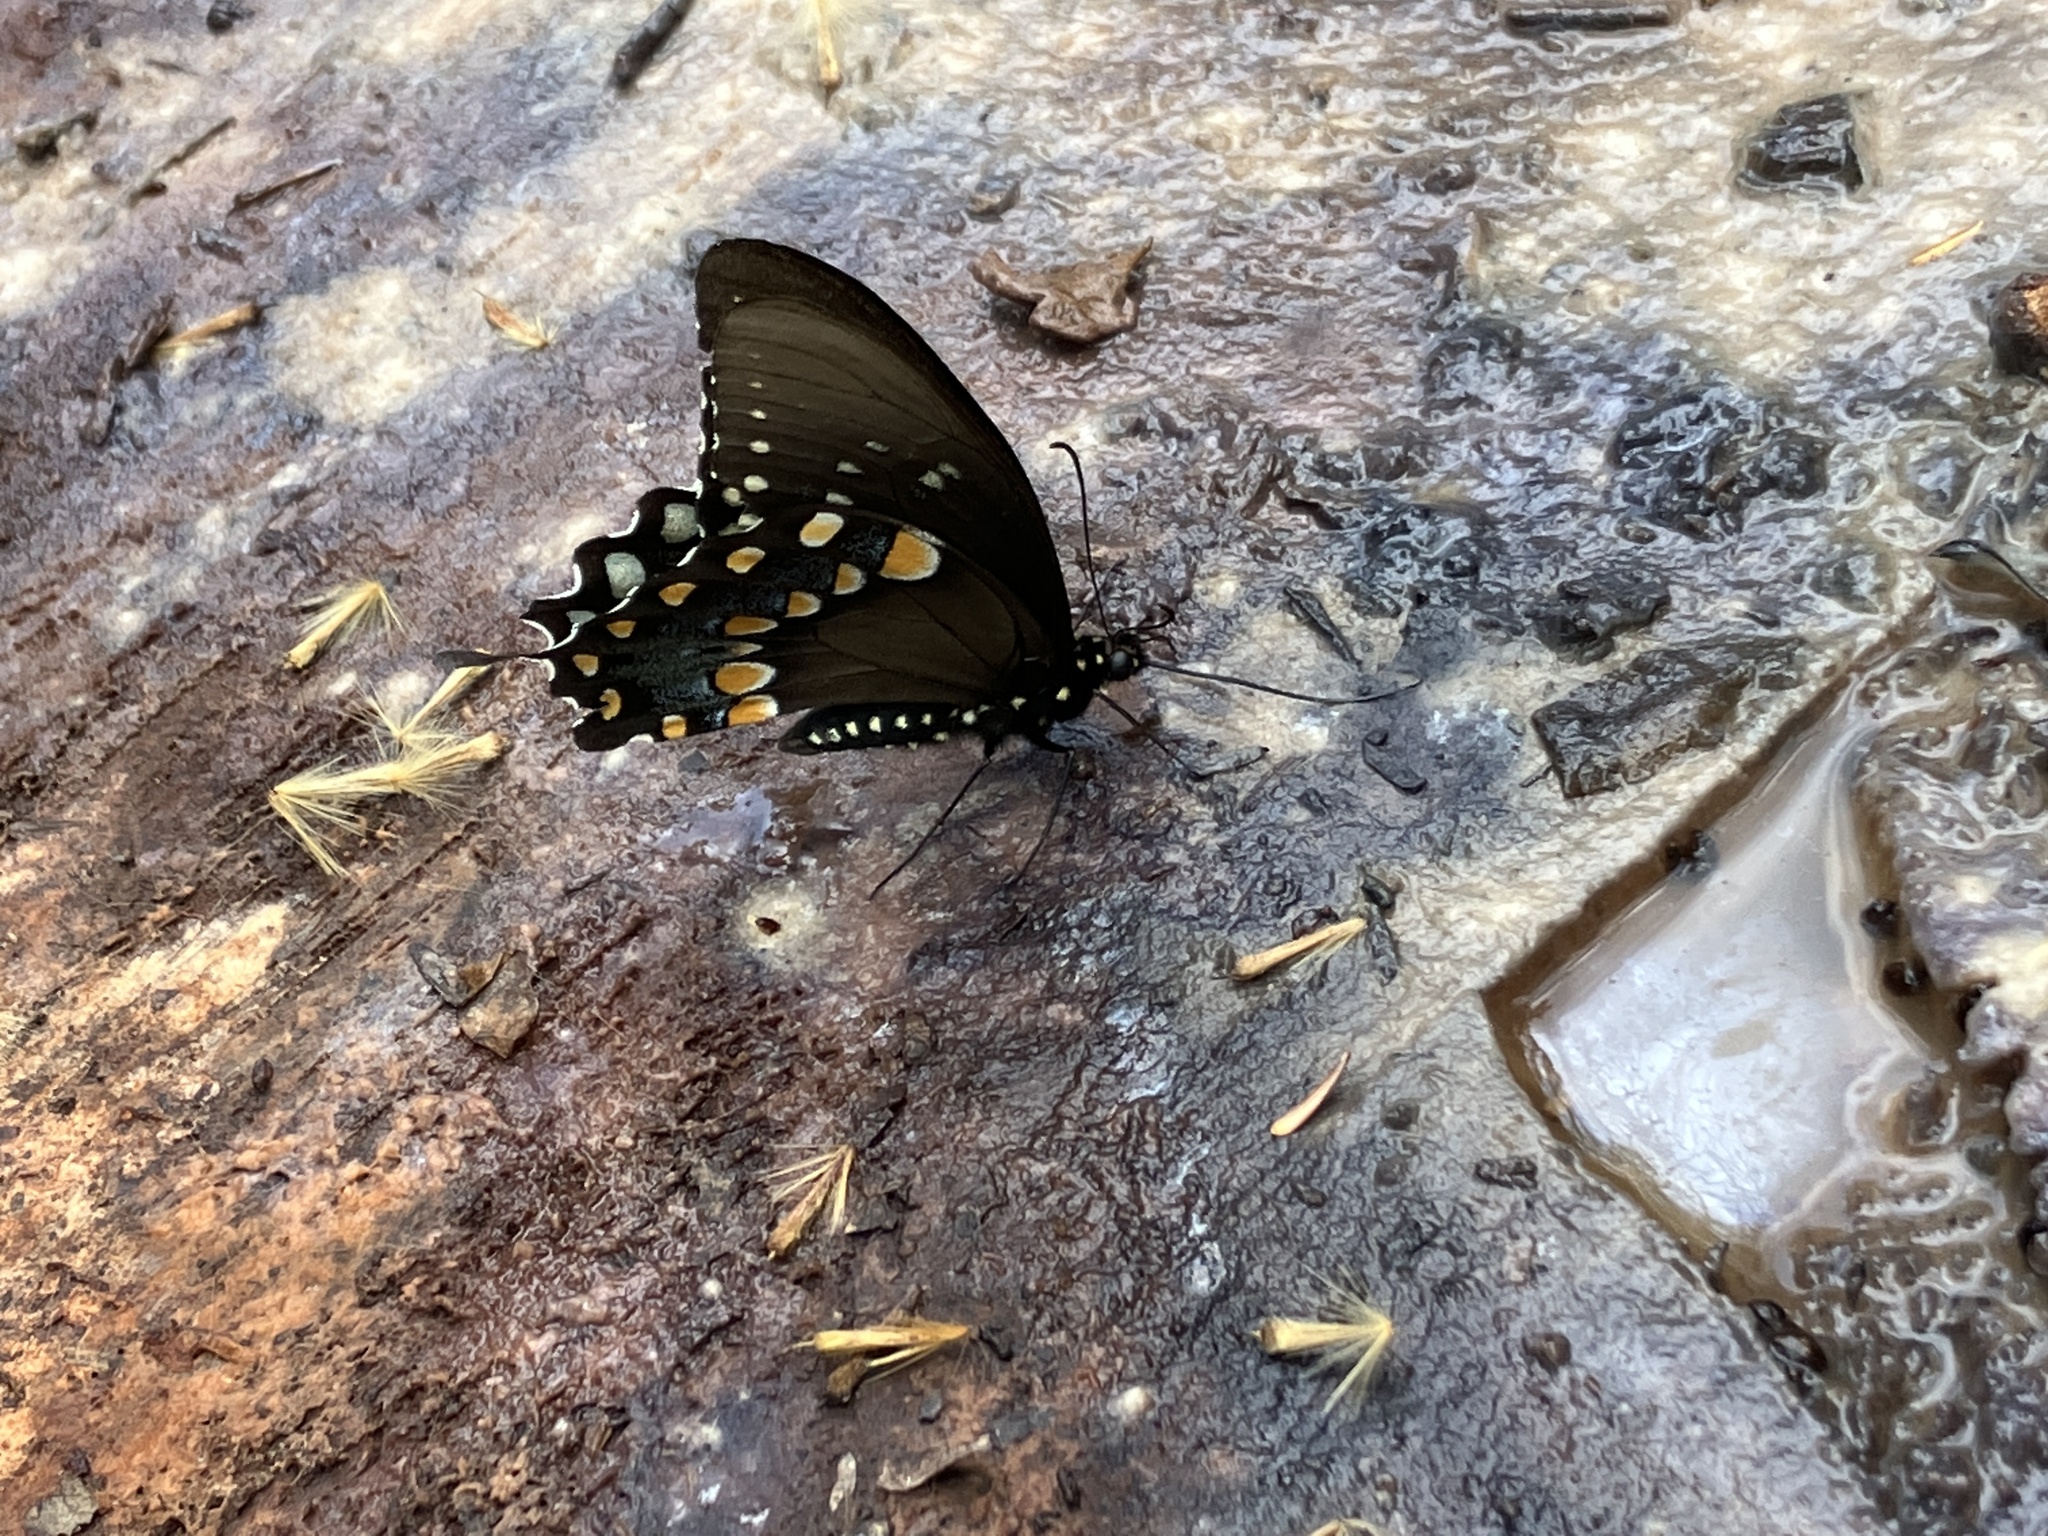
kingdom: Animalia
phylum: Arthropoda
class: Insecta
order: Lepidoptera
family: Papilionidae
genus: Papilio
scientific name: Papilio troilus
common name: Spicebush swallowtail
